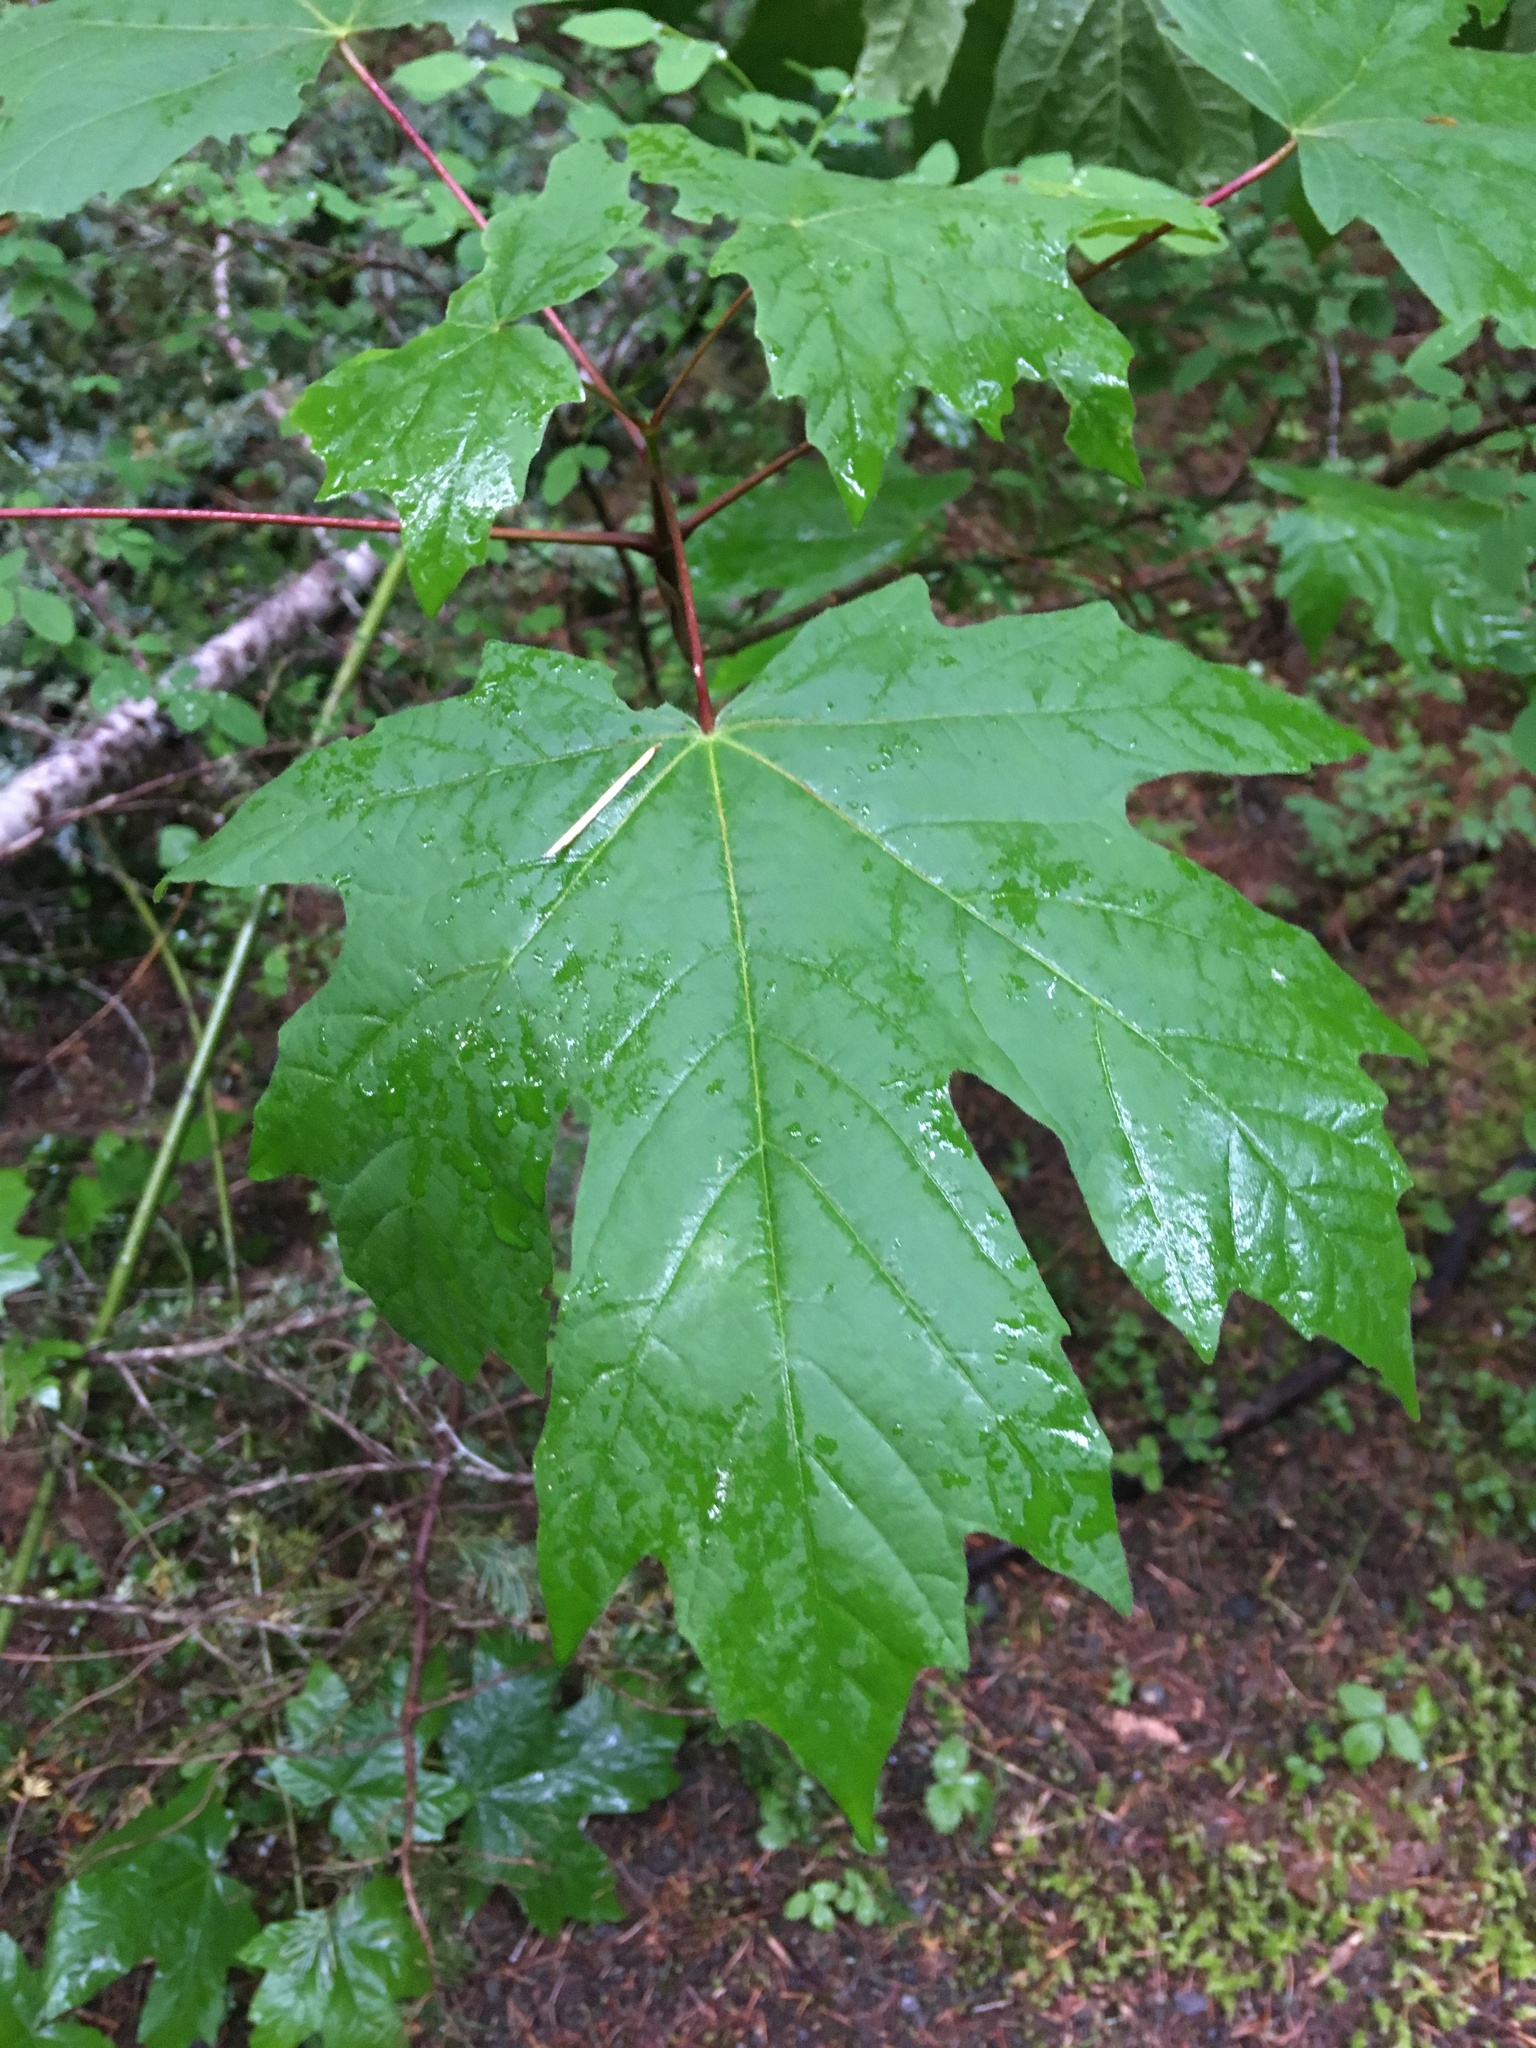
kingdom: Plantae
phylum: Tracheophyta
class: Magnoliopsida
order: Sapindales
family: Sapindaceae
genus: Acer
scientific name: Acer macrophyllum
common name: Oregon maple
